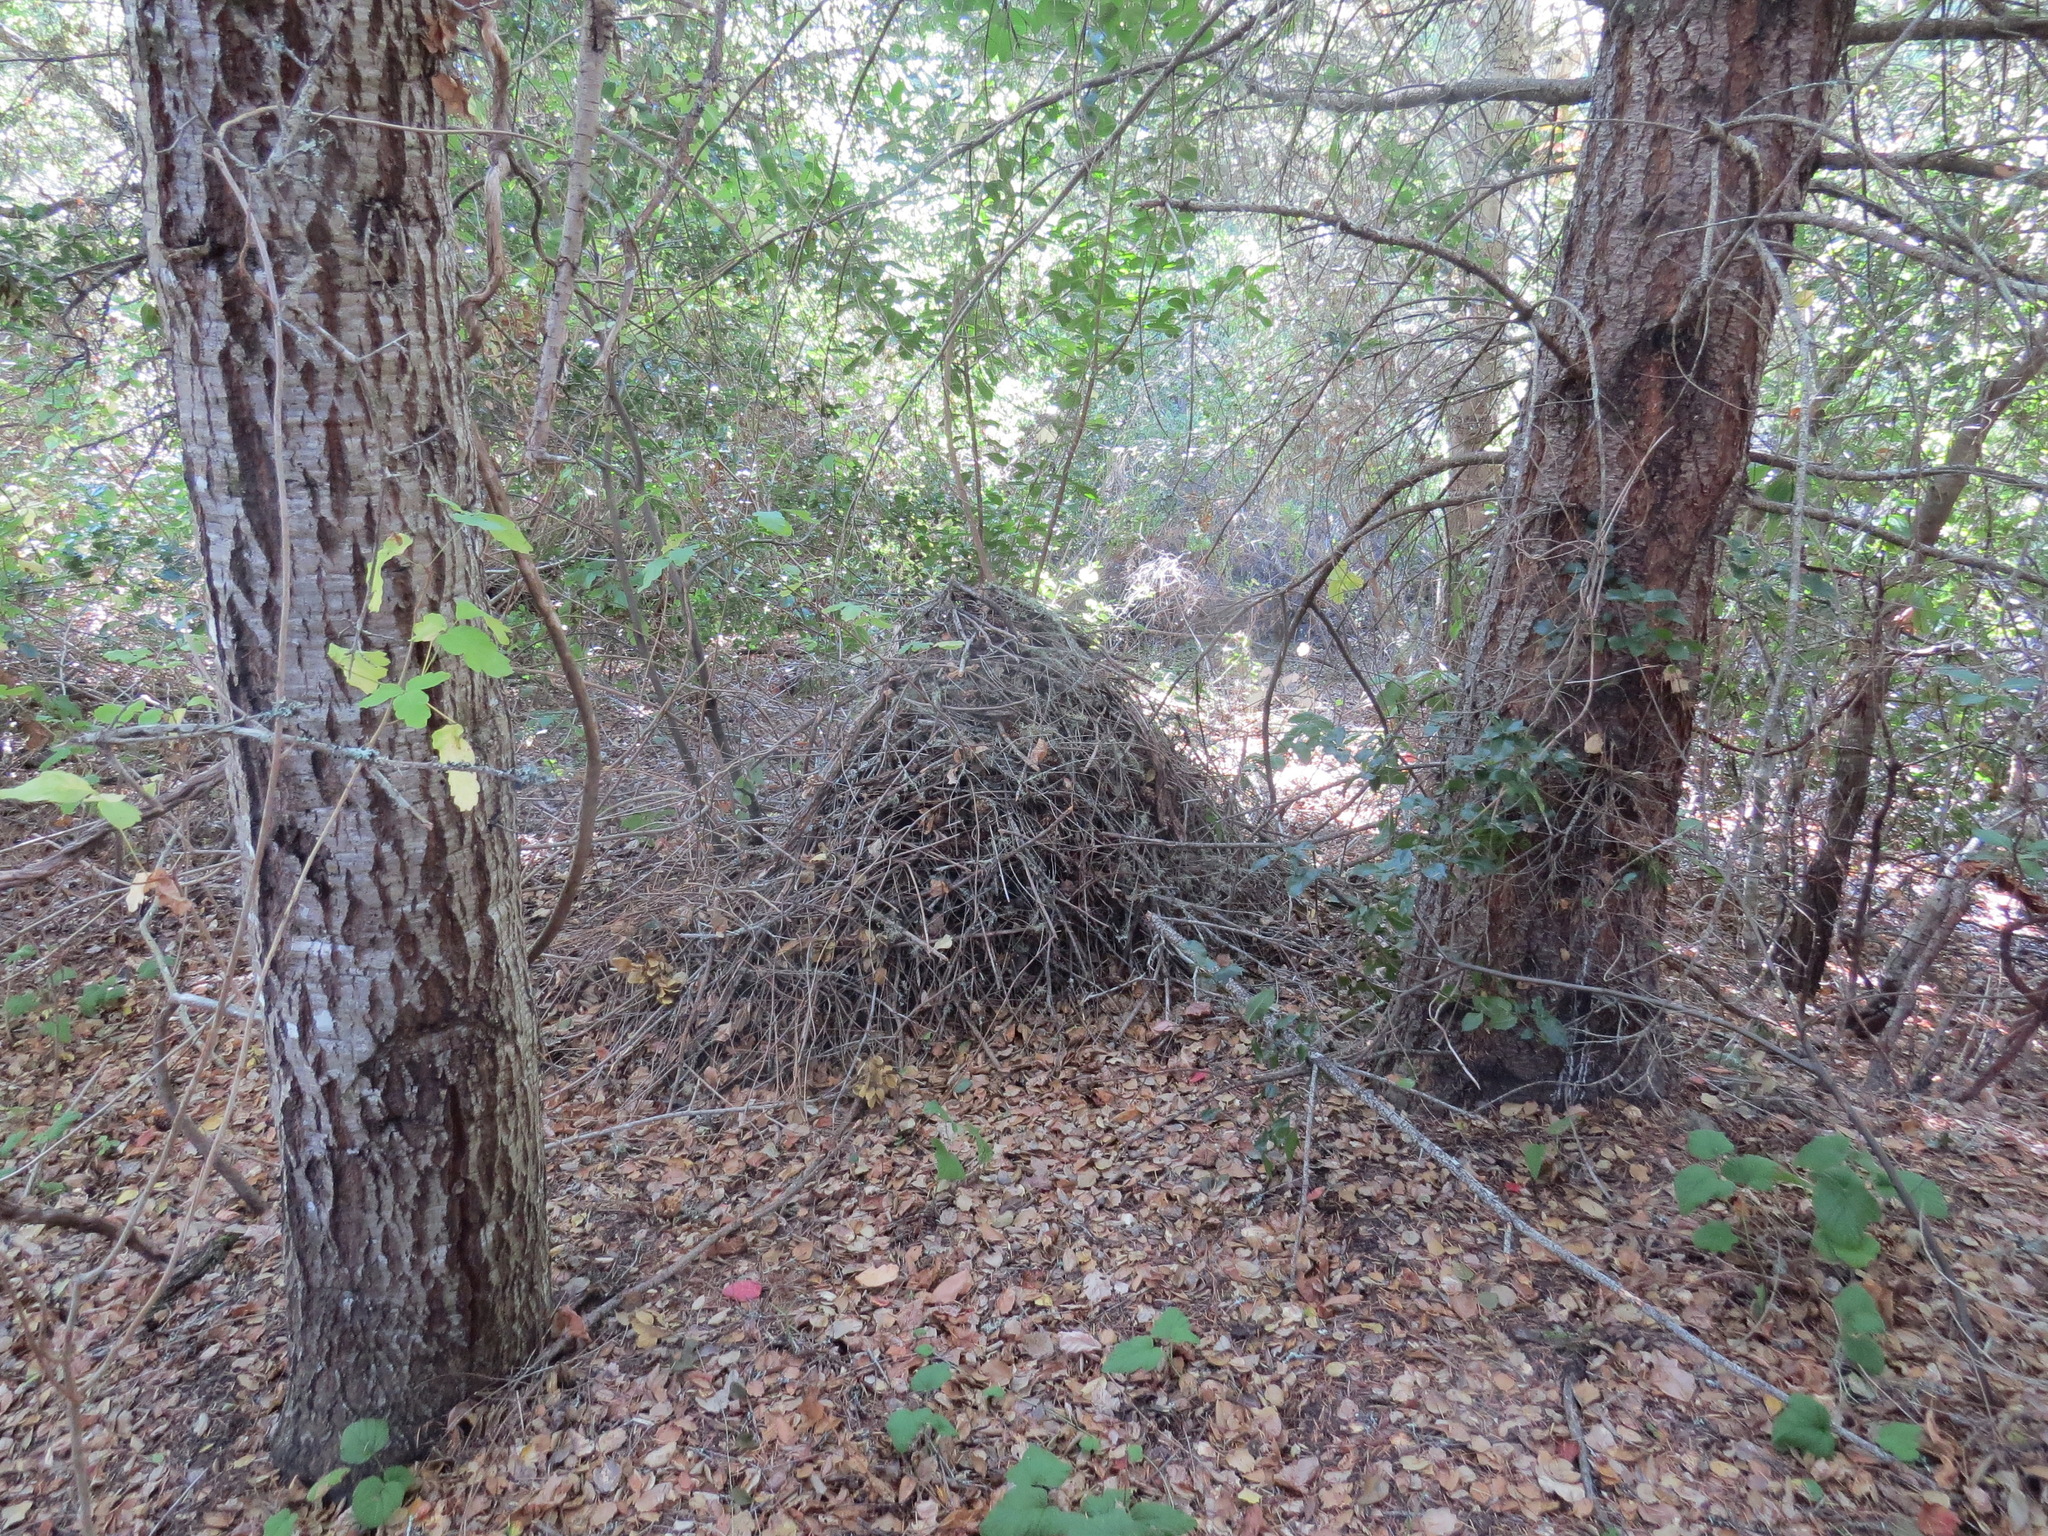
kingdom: Animalia
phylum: Chordata
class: Mammalia
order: Rodentia
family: Cricetidae
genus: Neotoma
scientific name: Neotoma fuscipes
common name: Dusky-footed woodrat
